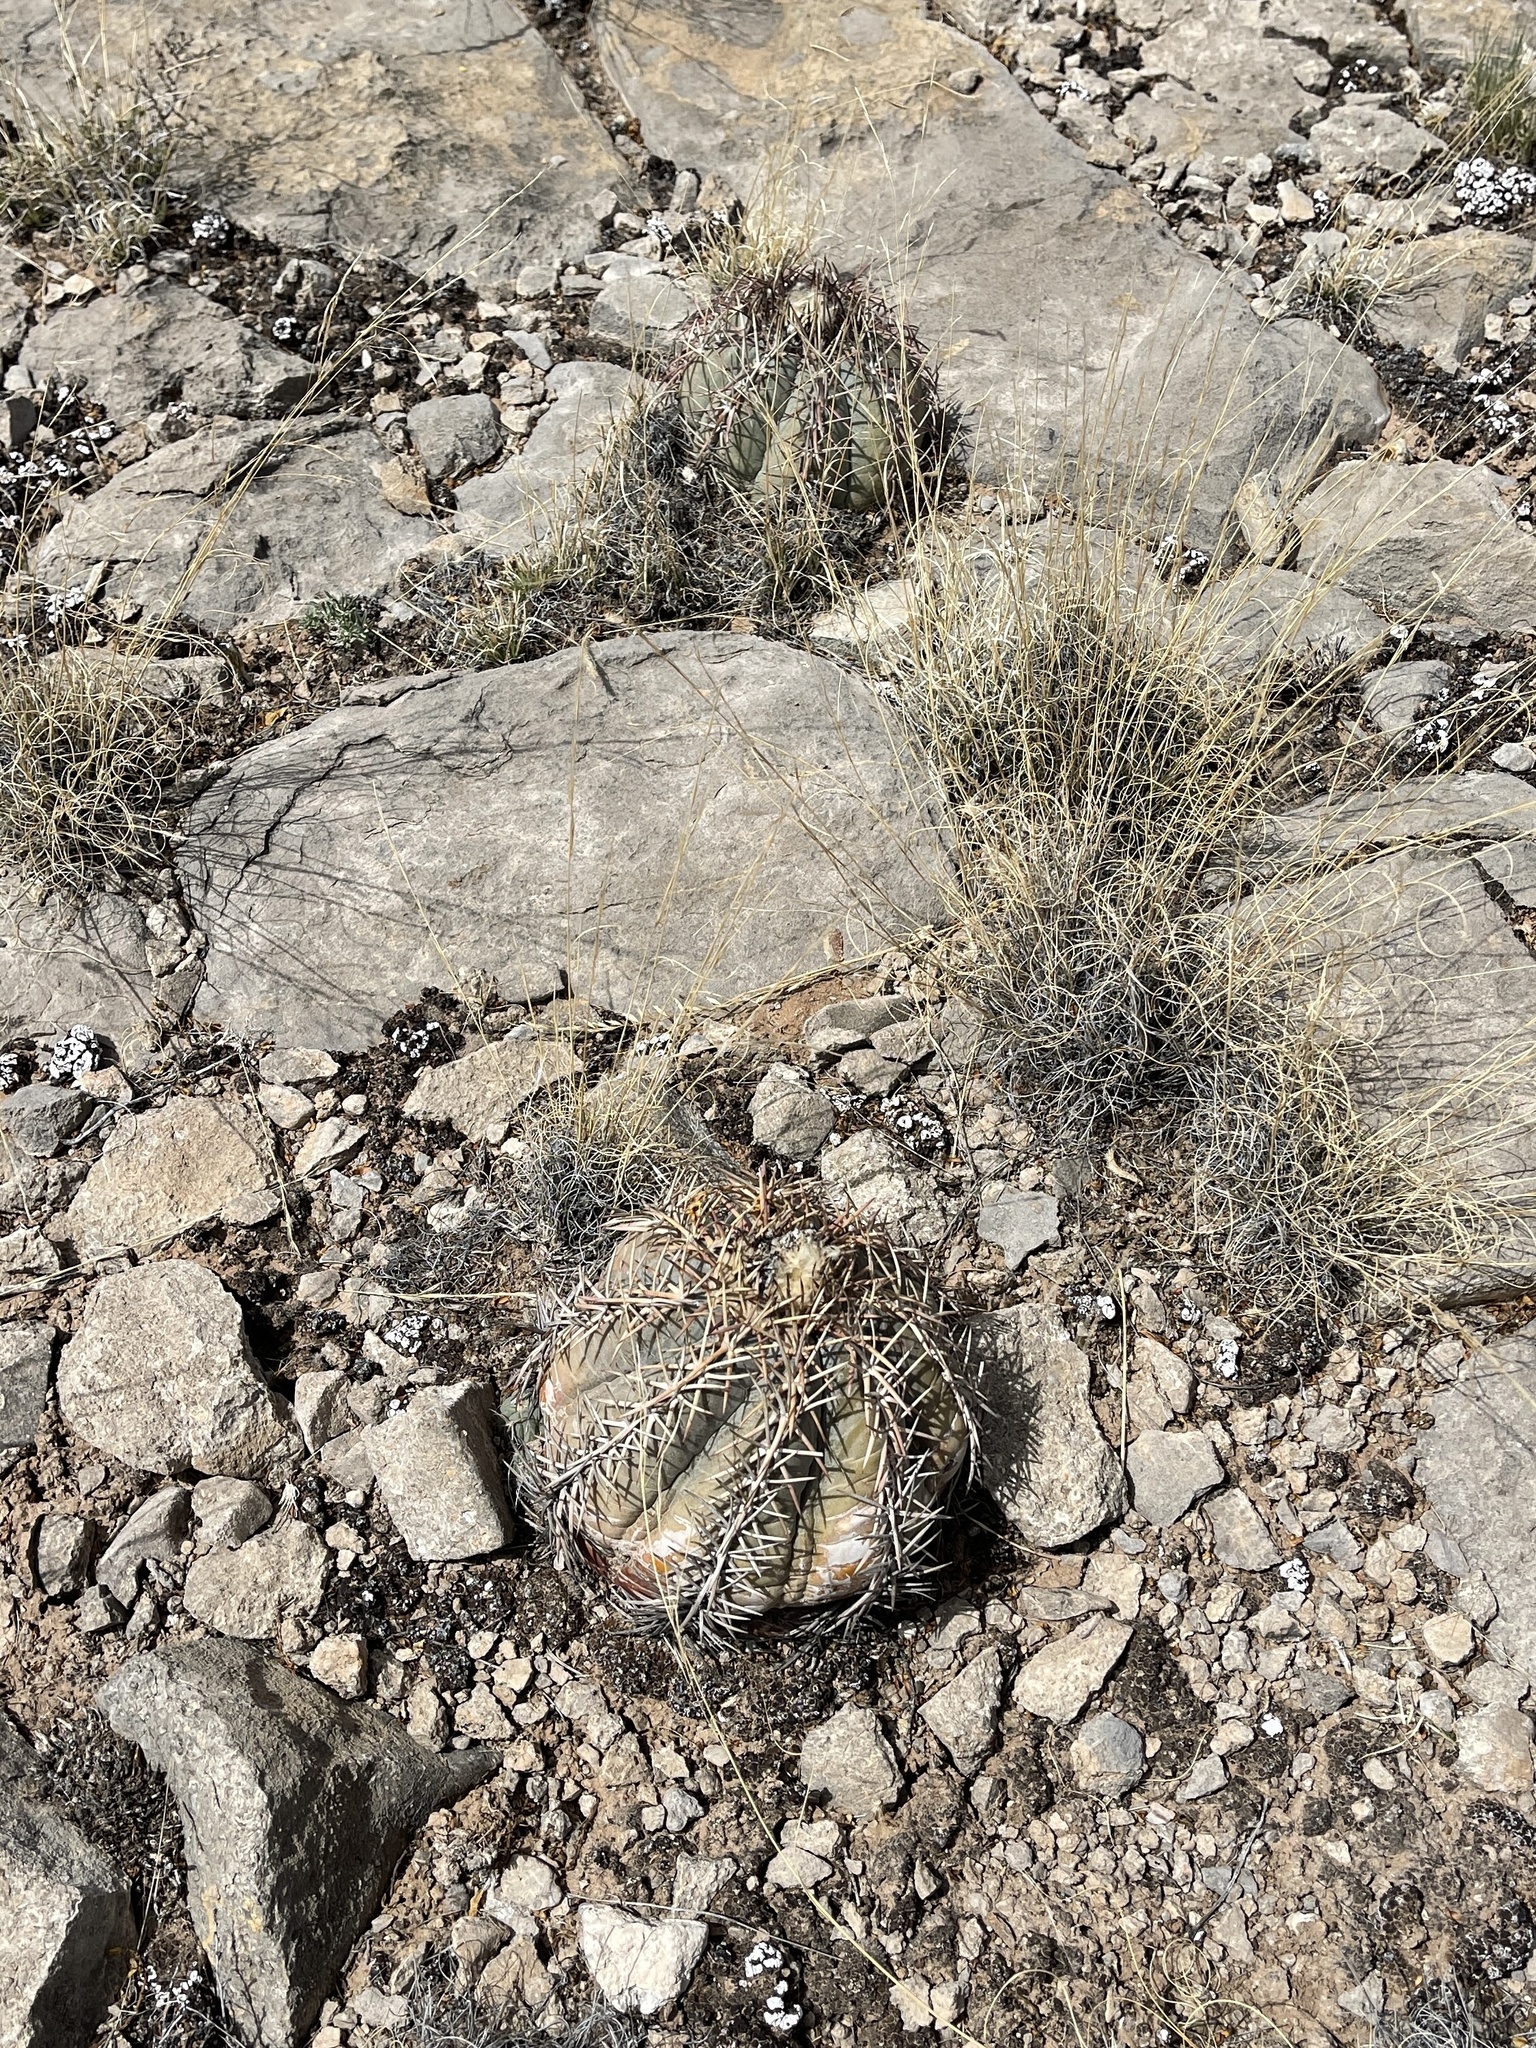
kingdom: Plantae
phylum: Tracheophyta
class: Magnoliopsida
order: Caryophyllales
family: Cactaceae
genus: Echinocactus
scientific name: Echinocactus horizonthalonius
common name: Devilshead
